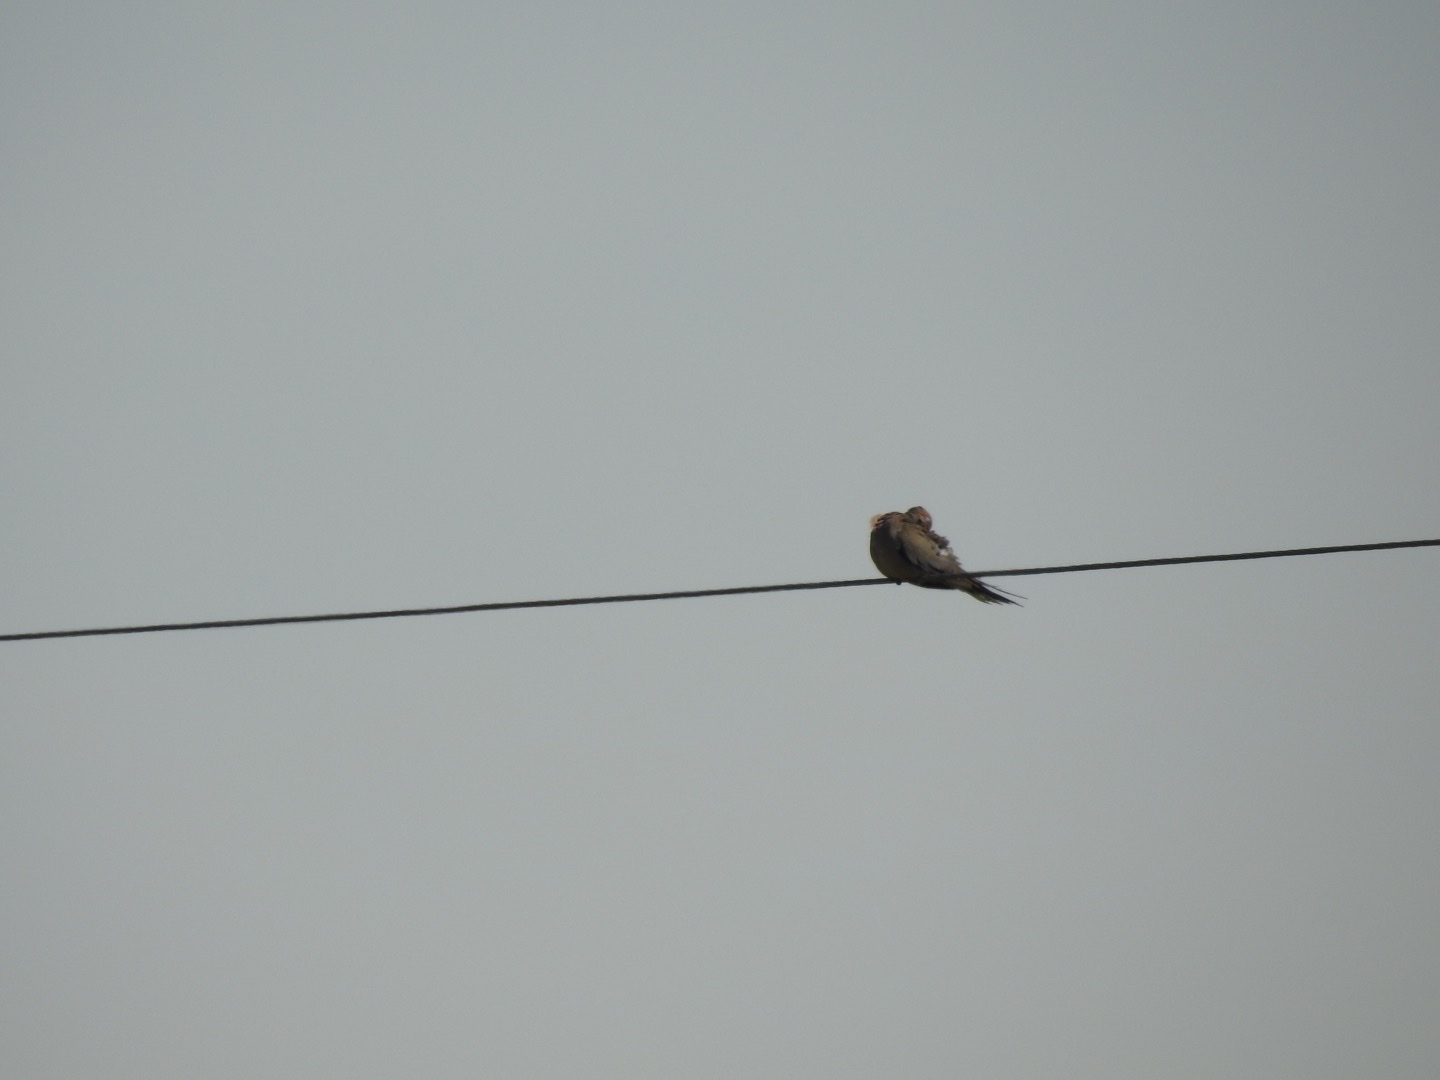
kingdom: Animalia
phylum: Chordata
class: Aves
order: Columbiformes
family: Columbidae
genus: Zenaida
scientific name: Zenaida macroura
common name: Mourning dove
